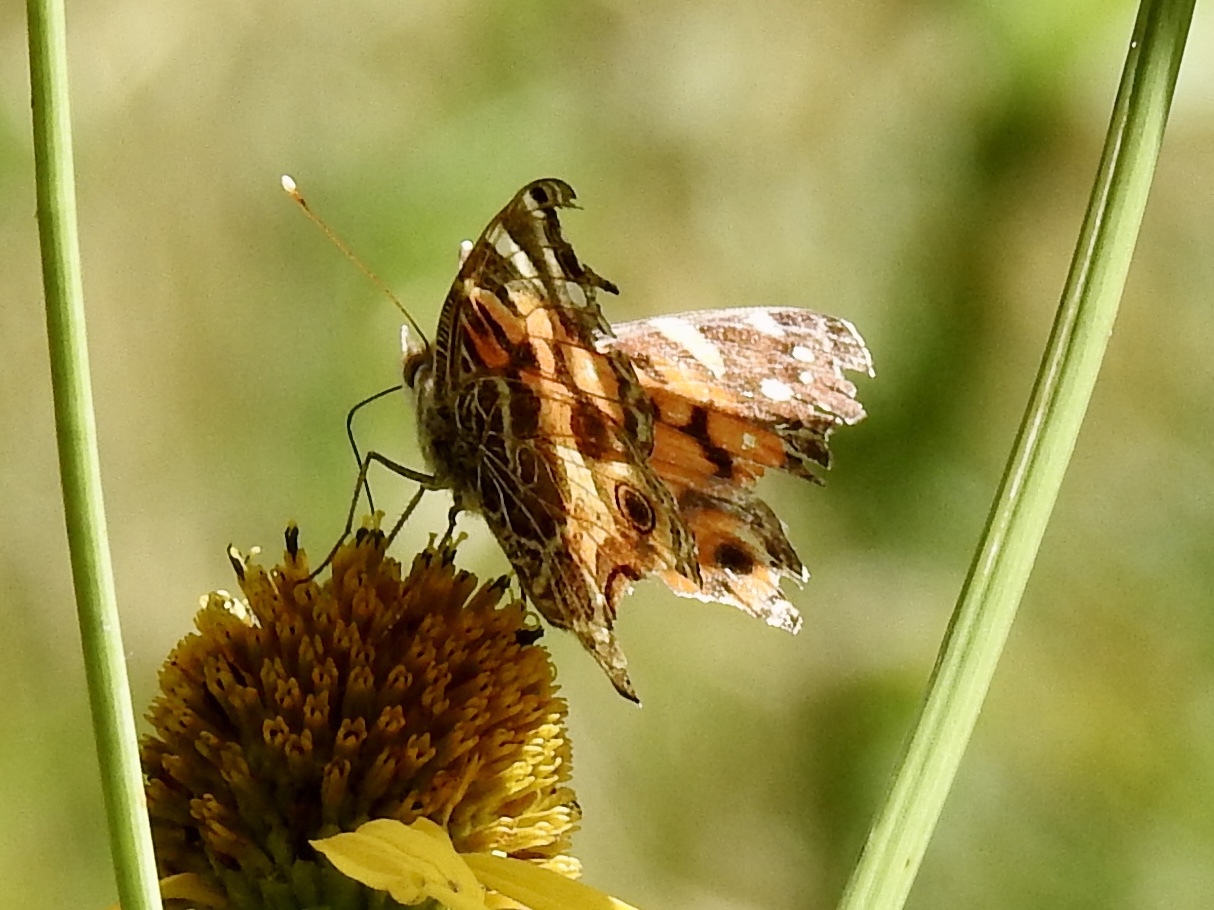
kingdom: Animalia
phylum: Arthropoda
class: Insecta
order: Lepidoptera
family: Nymphalidae
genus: Vanessa
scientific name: Vanessa virginiensis
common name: American lady
